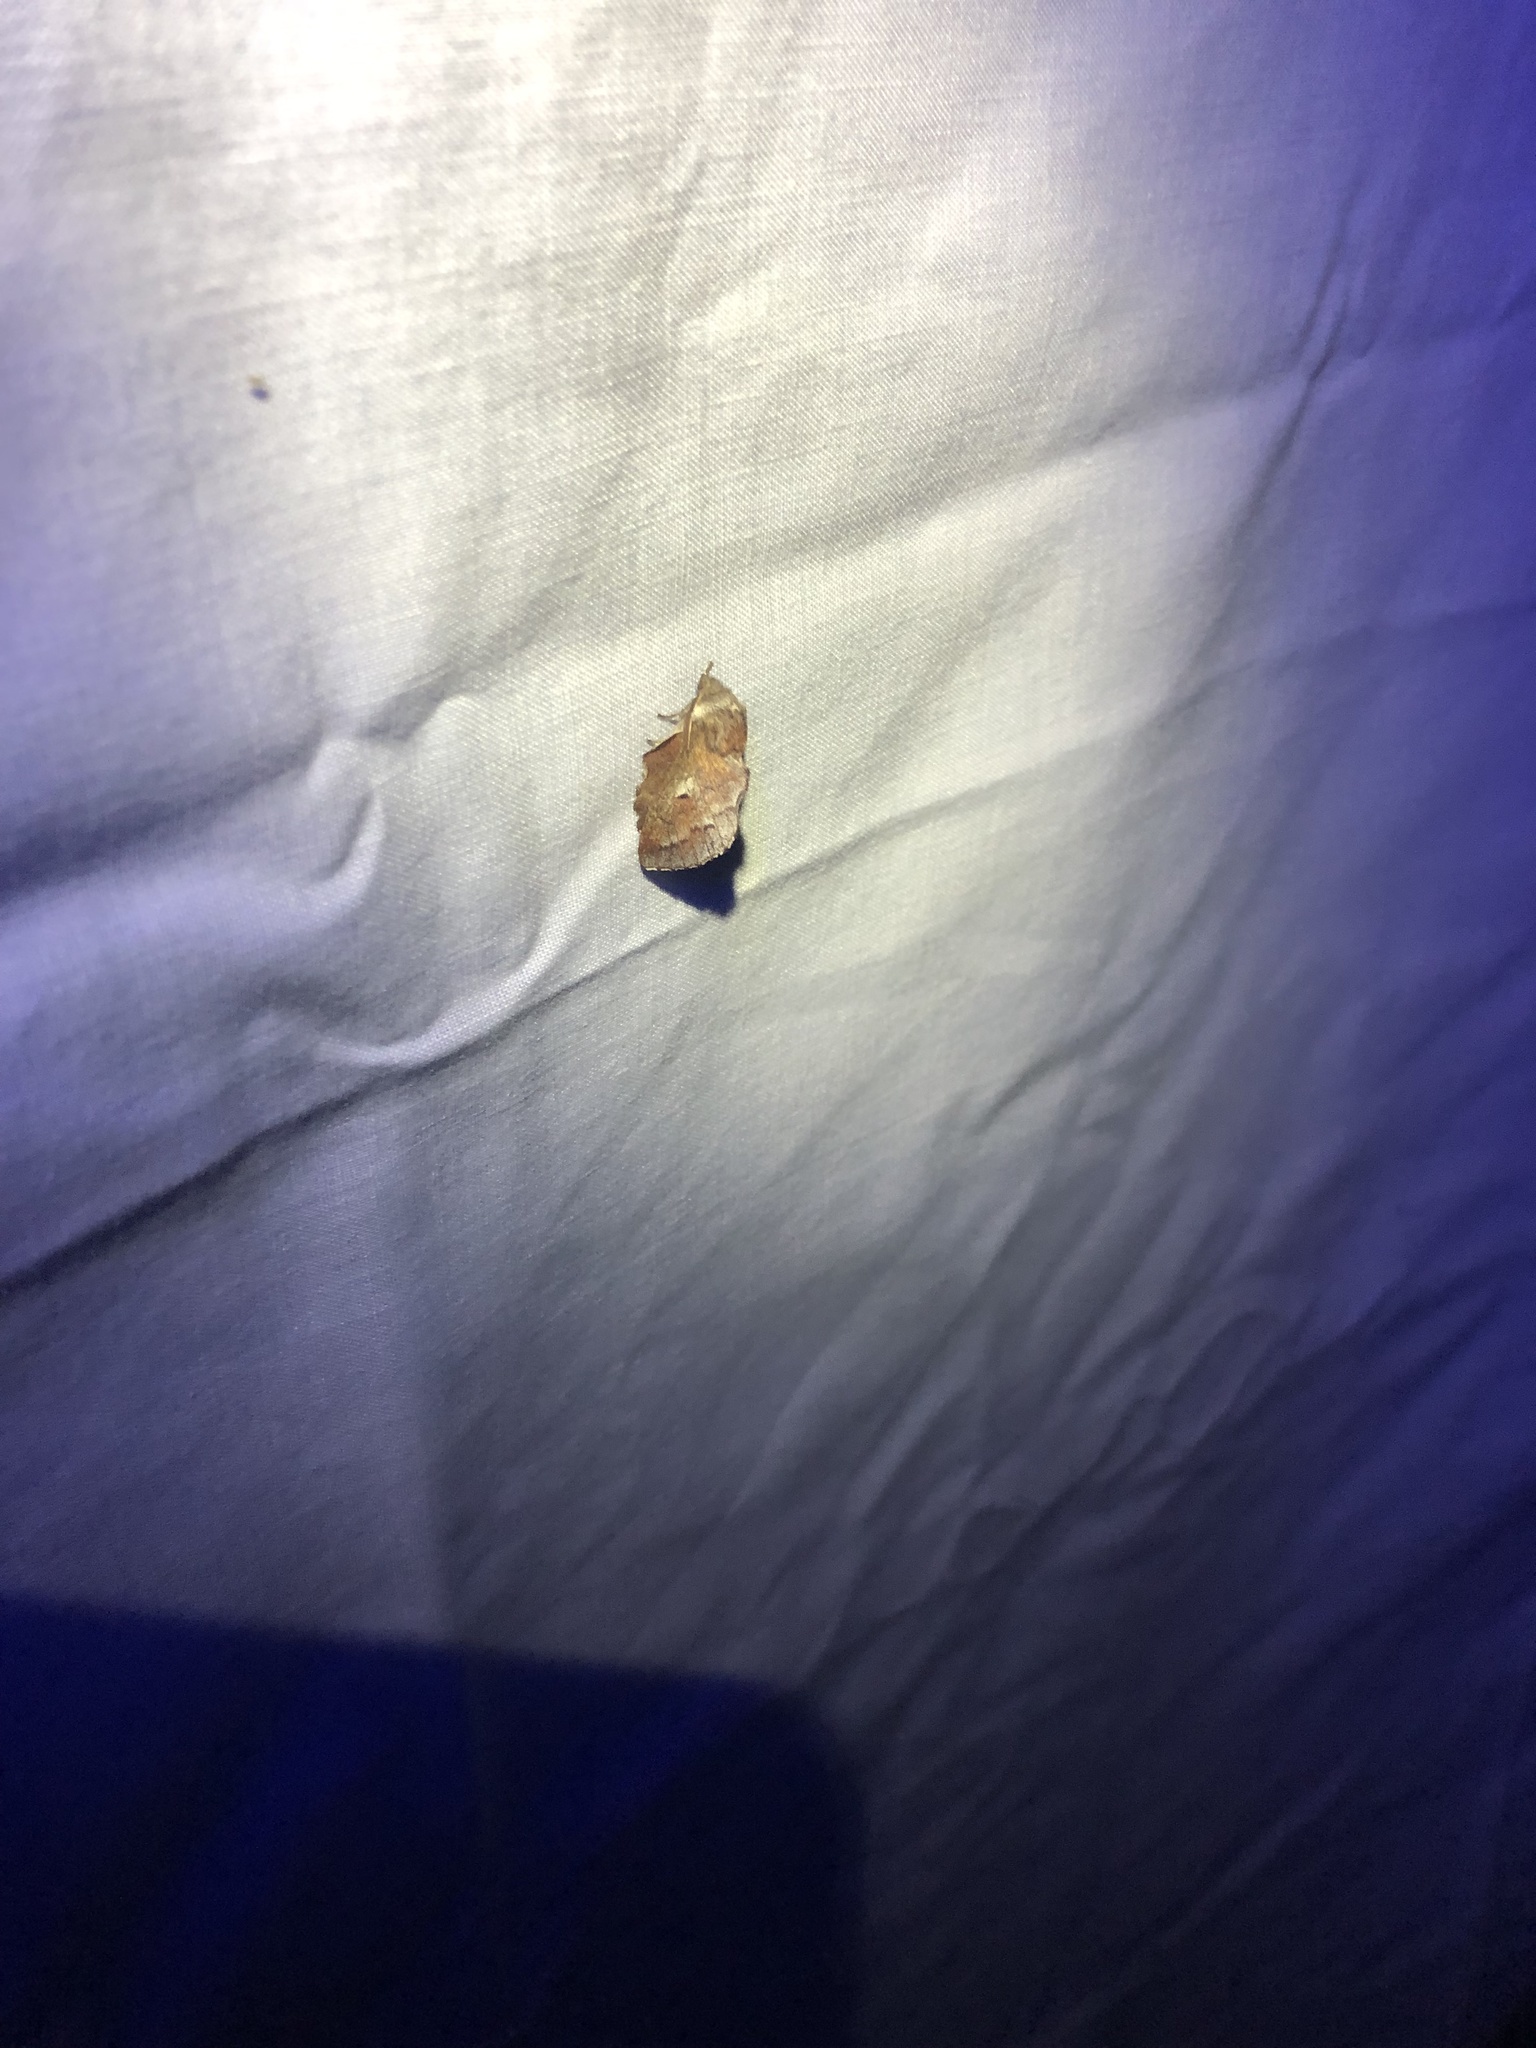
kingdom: Animalia
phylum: Arthropoda
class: Insecta
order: Lepidoptera
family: Lasiocampidae
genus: Phyllodesma
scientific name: Phyllodesma americana
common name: American lappet moth
